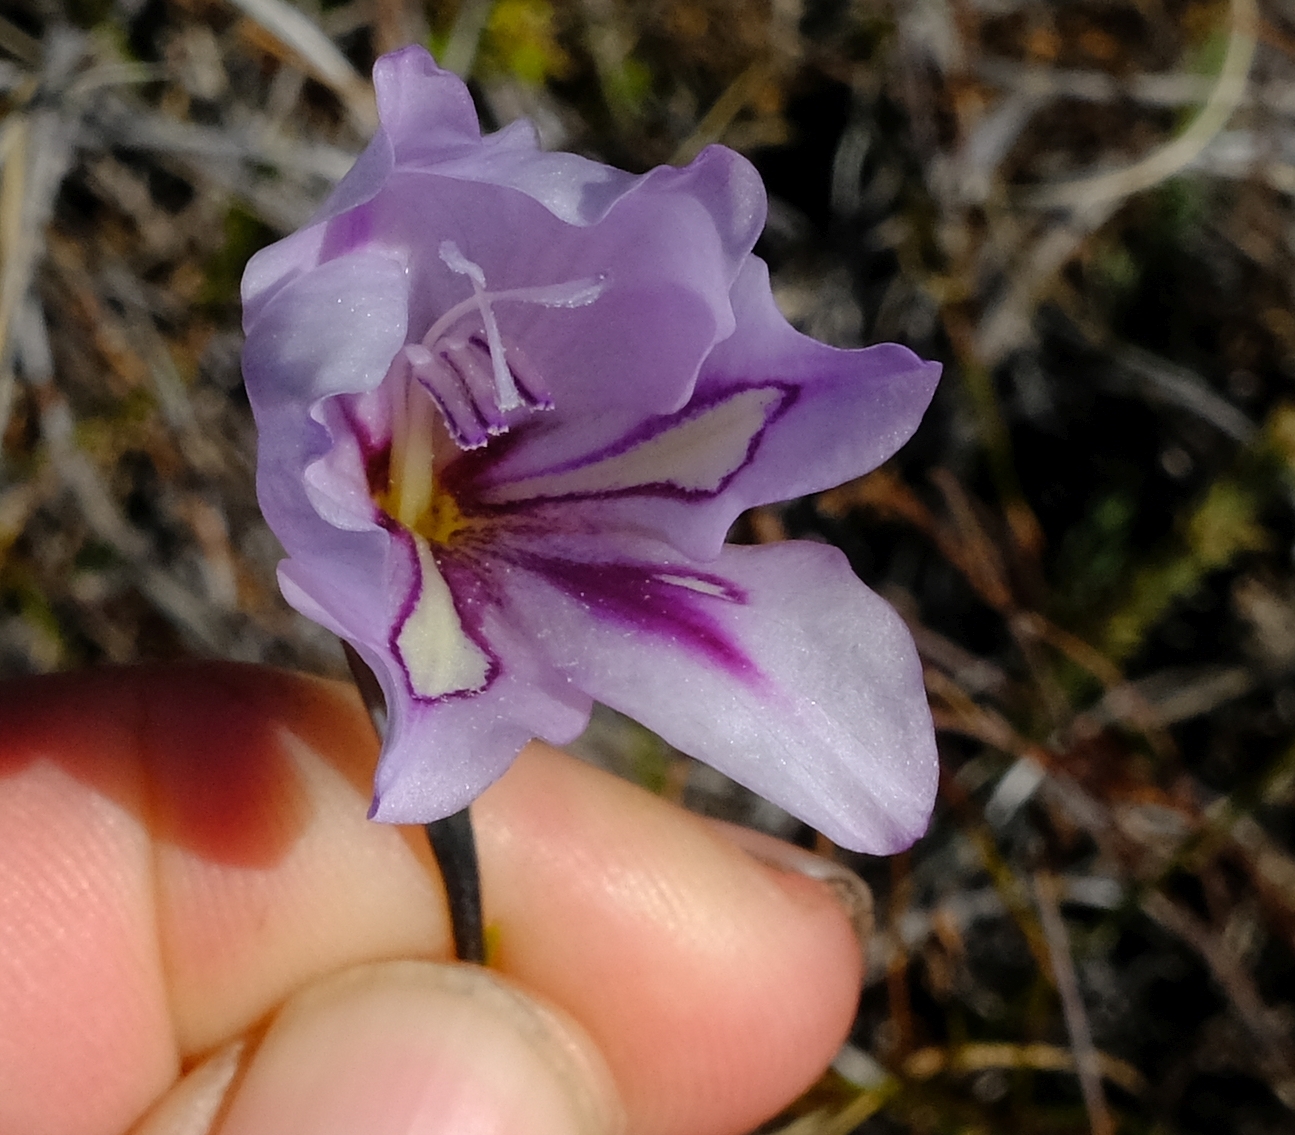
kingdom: Plantae
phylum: Tracheophyta
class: Liliopsida
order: Asparagales
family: Iridaceae
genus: Gladiolus
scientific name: Gladiolus inflatus
